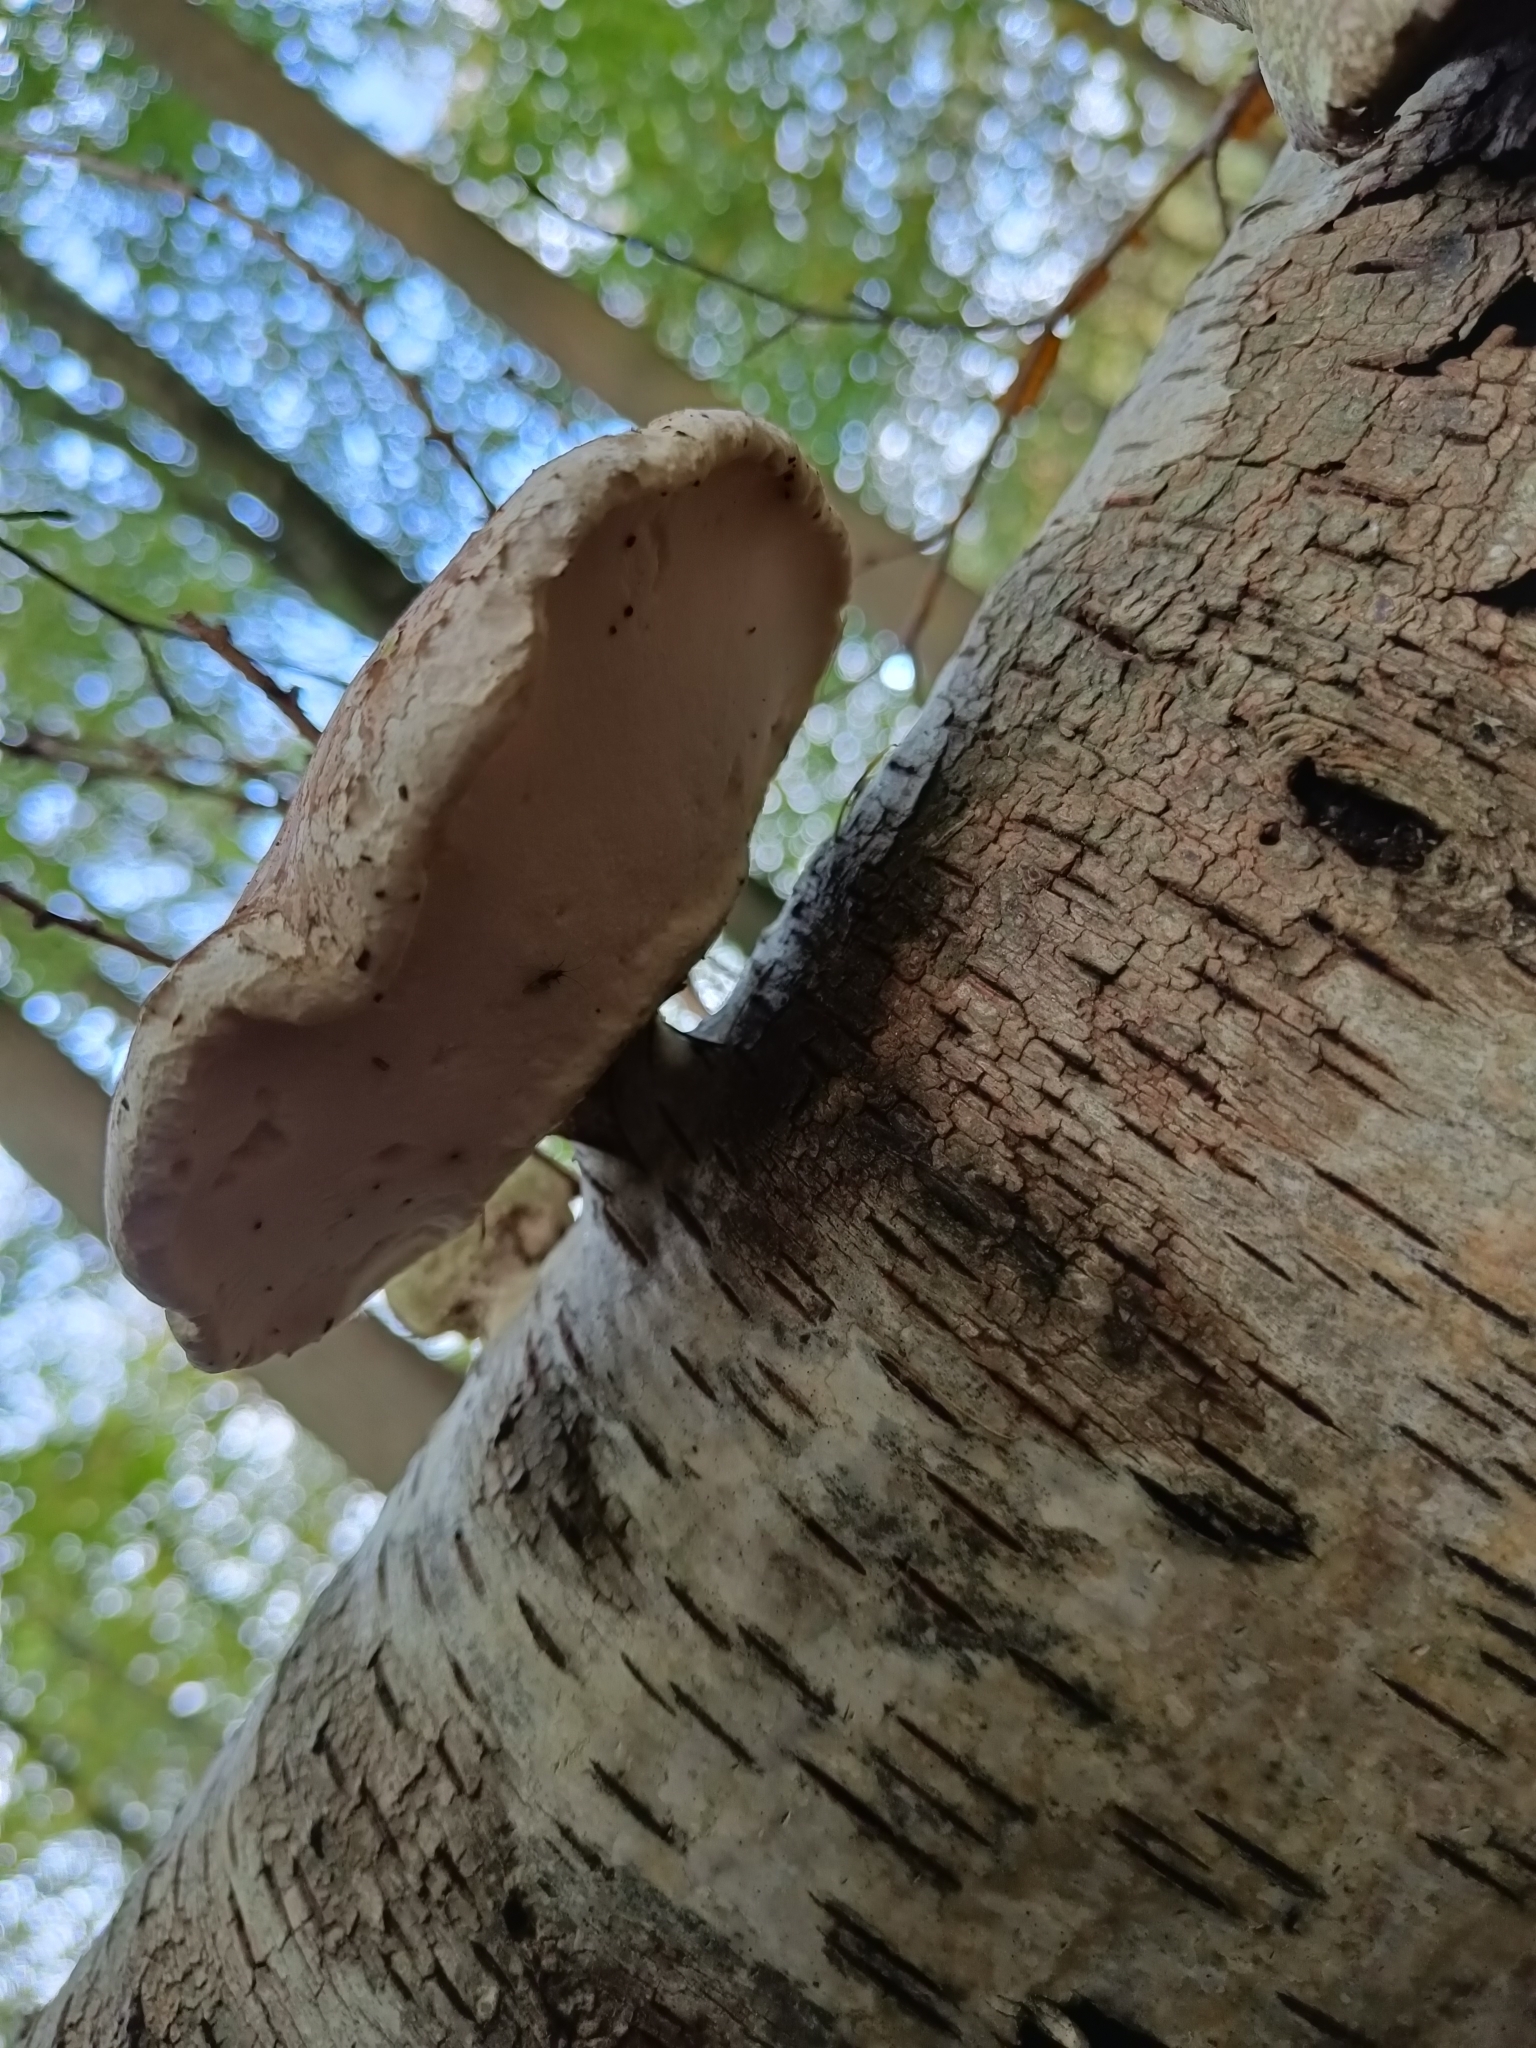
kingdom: Fungi
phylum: Basidiomycota
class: Agaricomycetes
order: Polyporales
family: Fomitopsidaceae
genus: Fomitopsis
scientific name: Fomitopsis betulina
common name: Birch polypore
